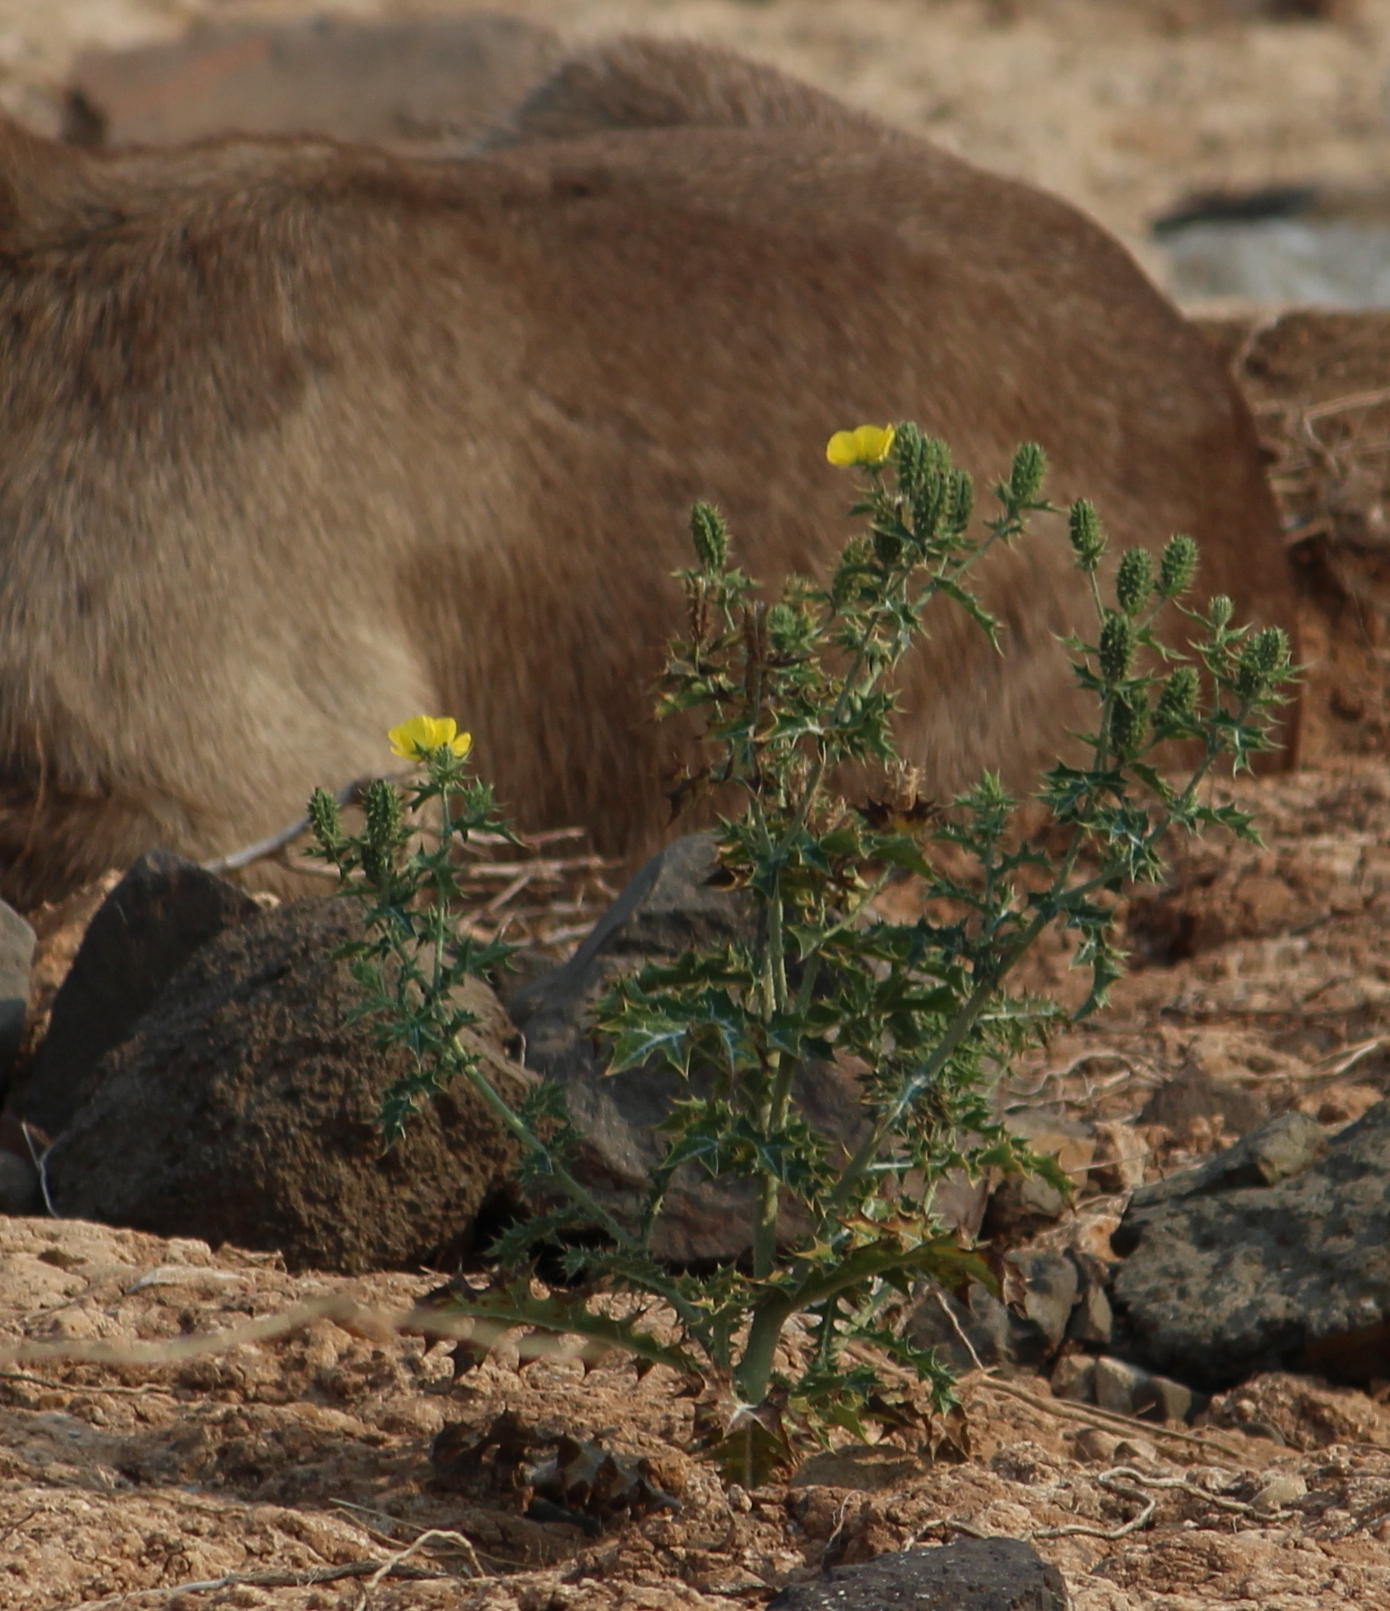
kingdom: Plantae
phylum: Tracheophyta
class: Magnoliopsida
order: Ranunculales
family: Papaveraceae
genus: Argemone
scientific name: Argemone mexicana
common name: Mexican poppy
